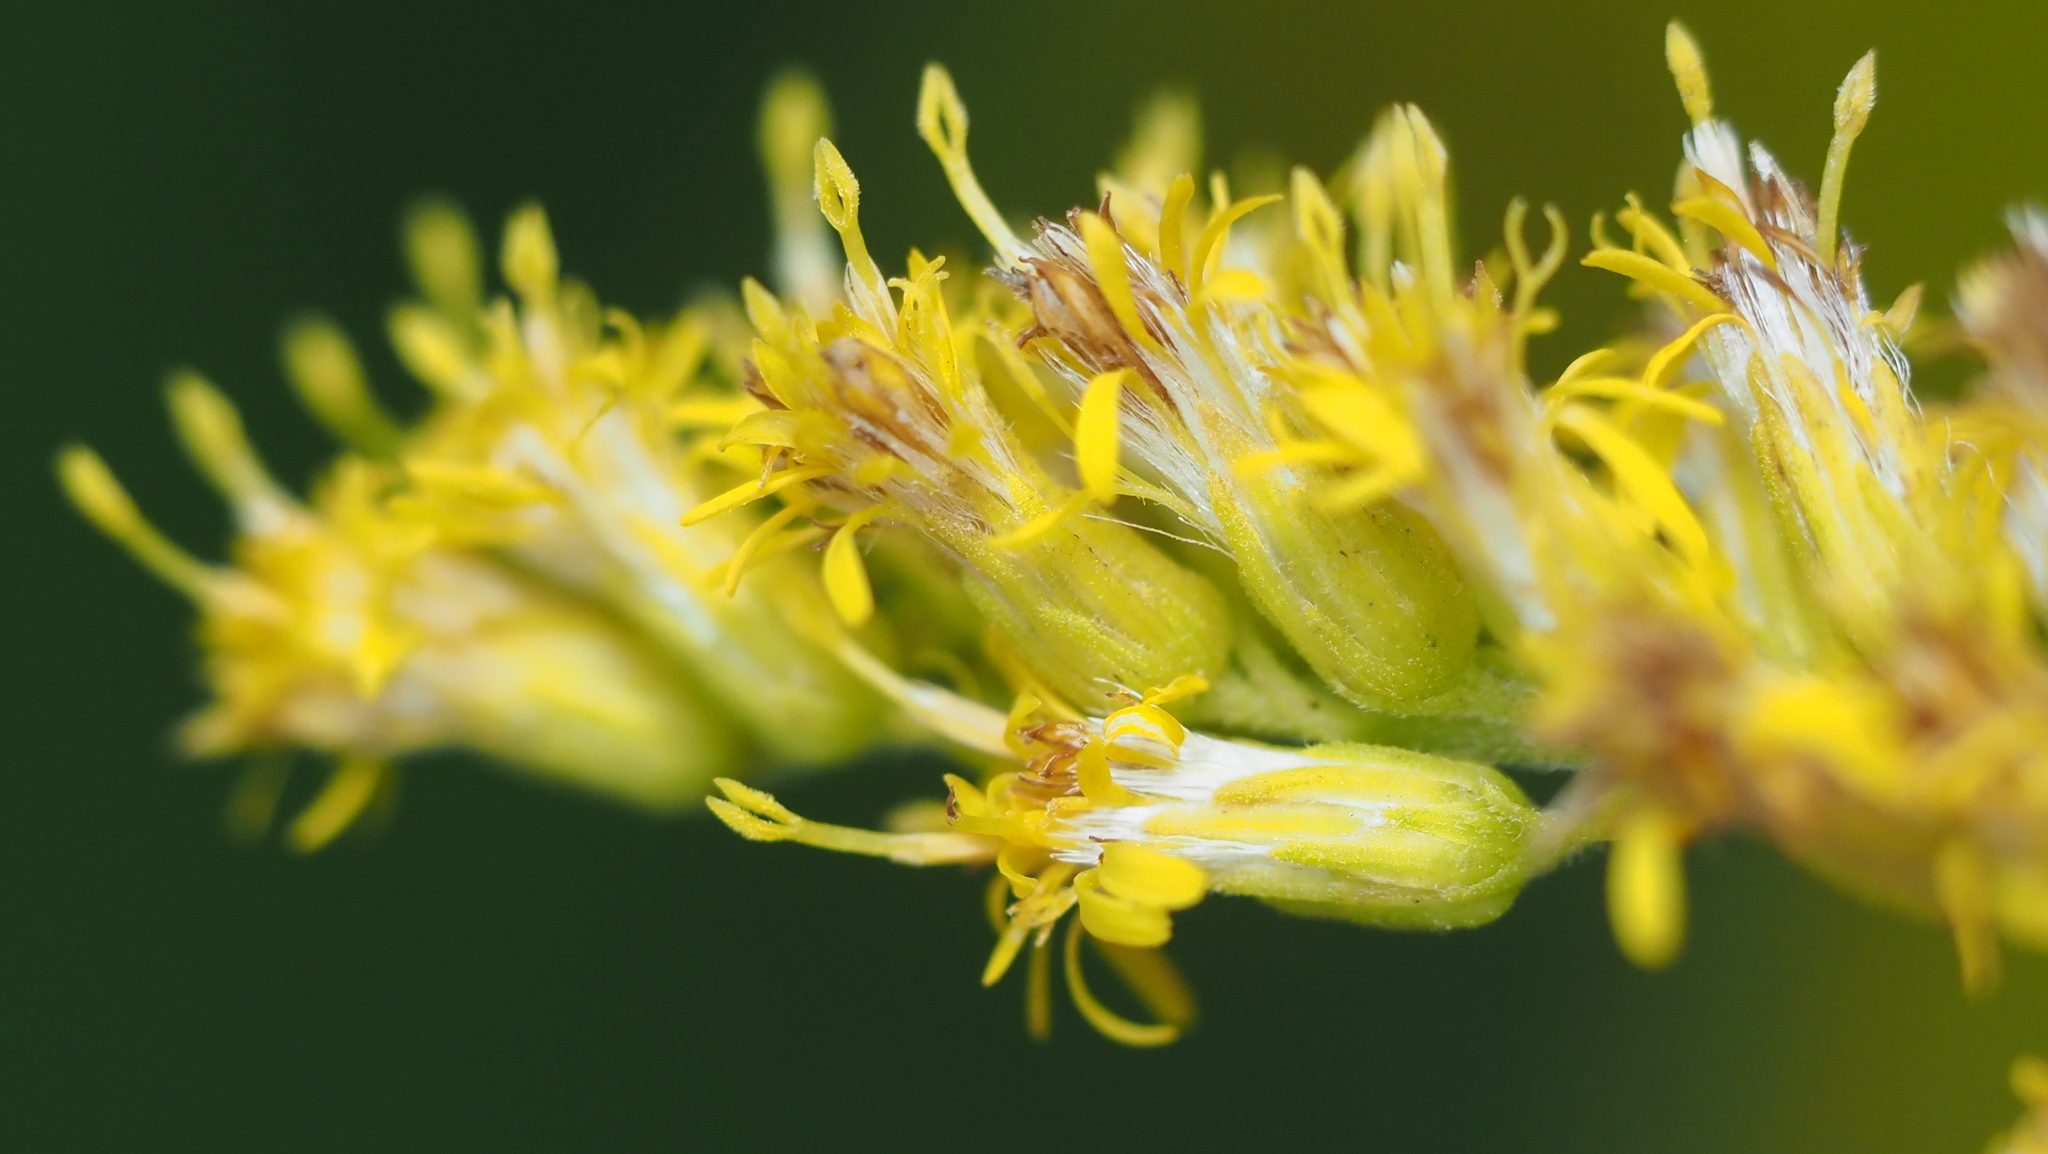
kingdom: Plantae
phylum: Tracheophyta
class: Magnoliopsida
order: Asterales
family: Asteraceae
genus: Solidago
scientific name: Solidago altissima
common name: Late goldenrod
